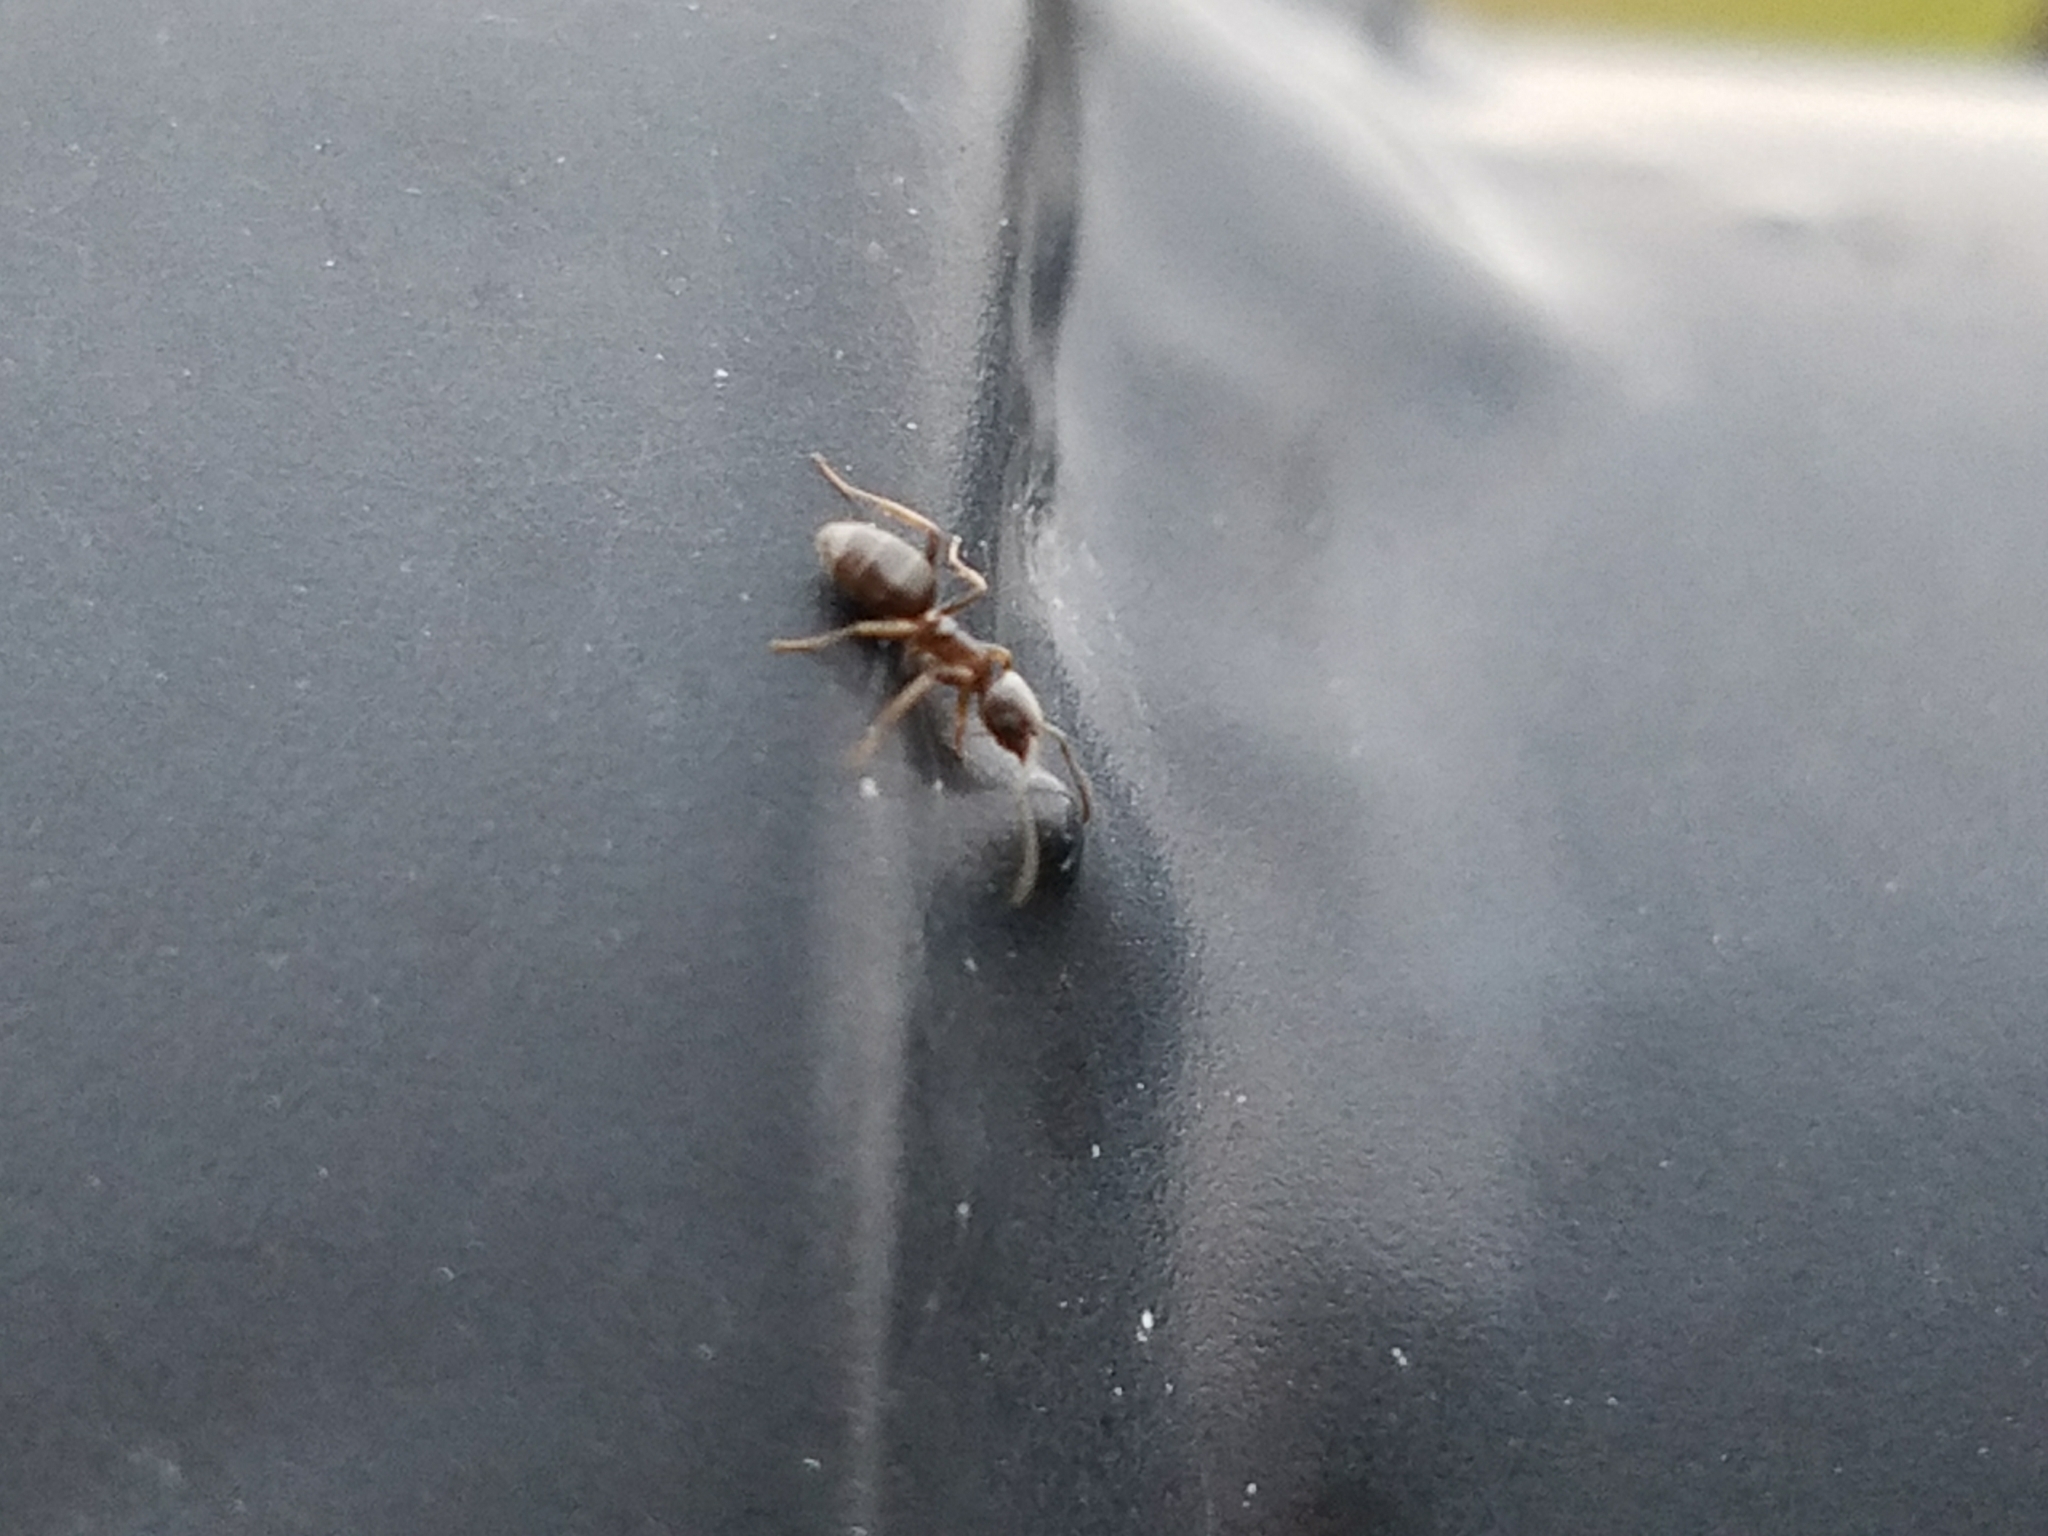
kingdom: Animalia
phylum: Arthropoda
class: Insecta
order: Hymenoptera
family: Formicidae
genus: Tapinoma
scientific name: Tapinoma sessile
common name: Odorous house ant
